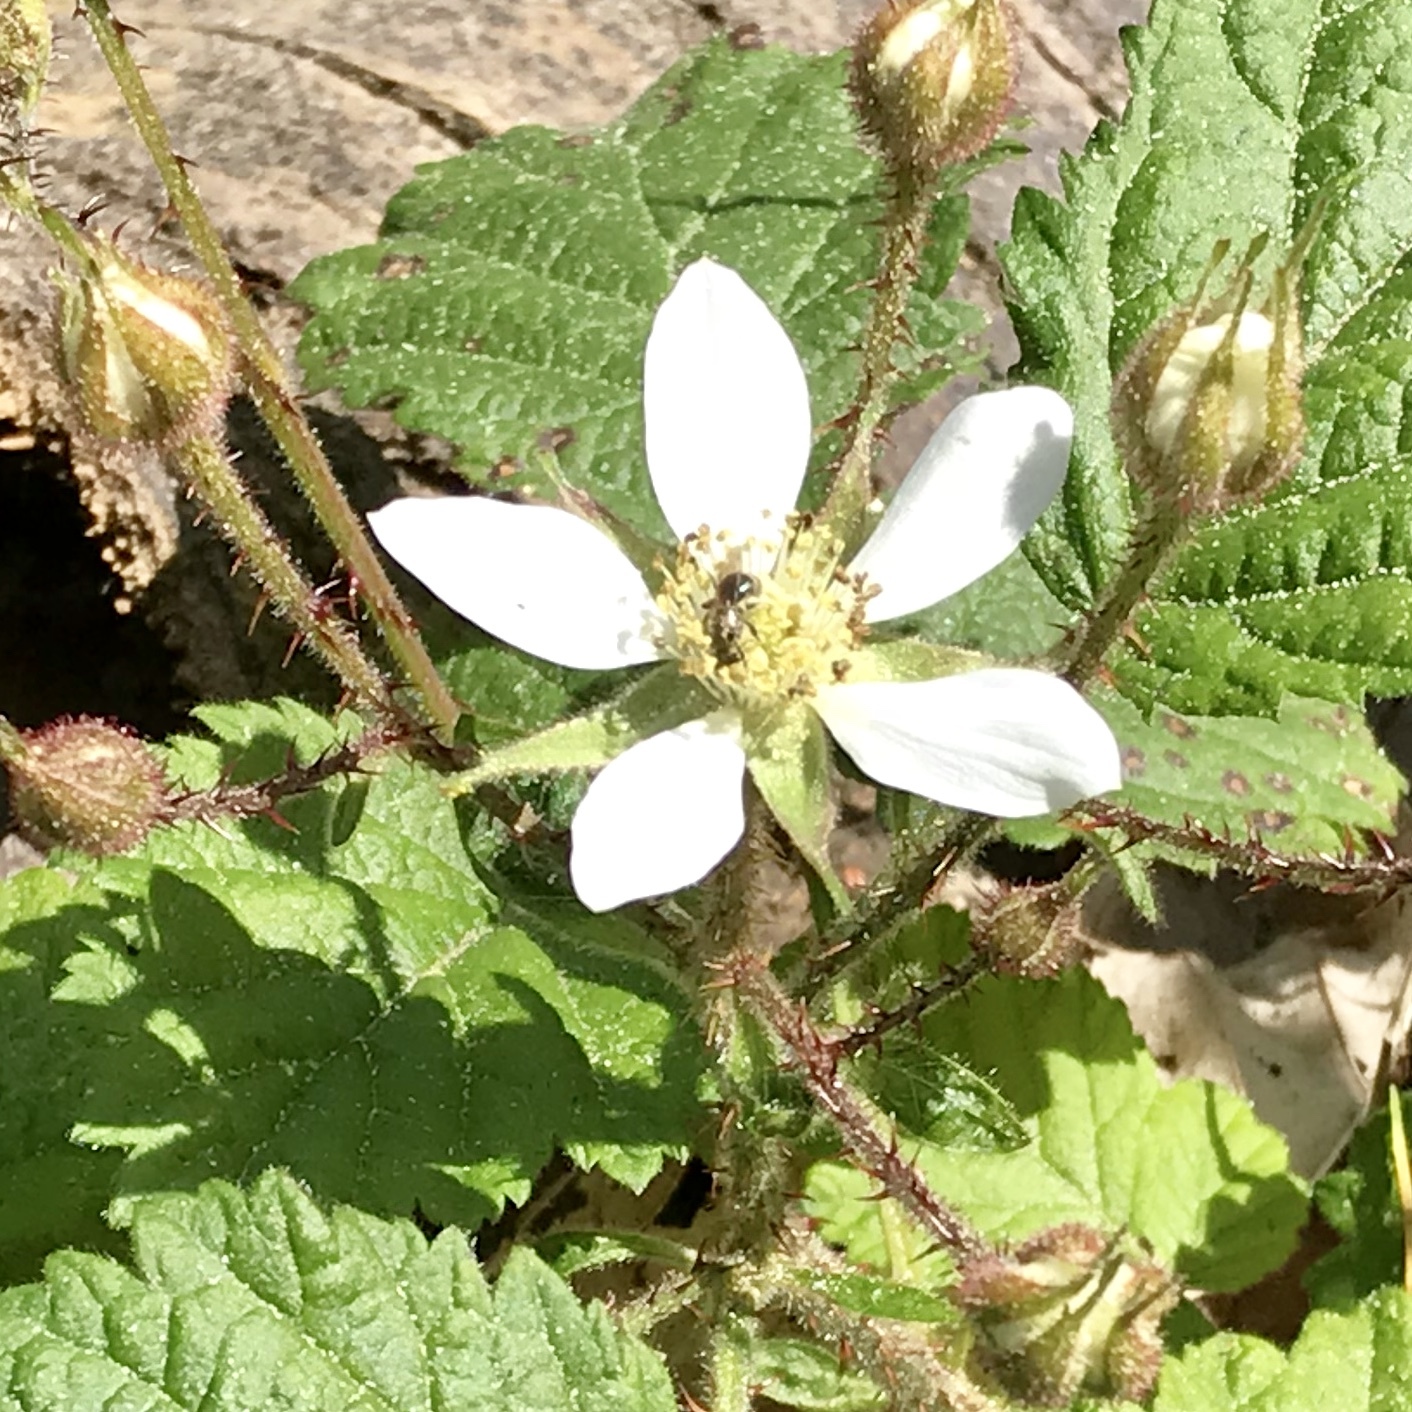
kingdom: Plantae
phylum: Tracheophyta
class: Magnoliopsida
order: Rosales
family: Rosaceae
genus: Rubus
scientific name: Rubus ursinus
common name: Pacific blackberry
